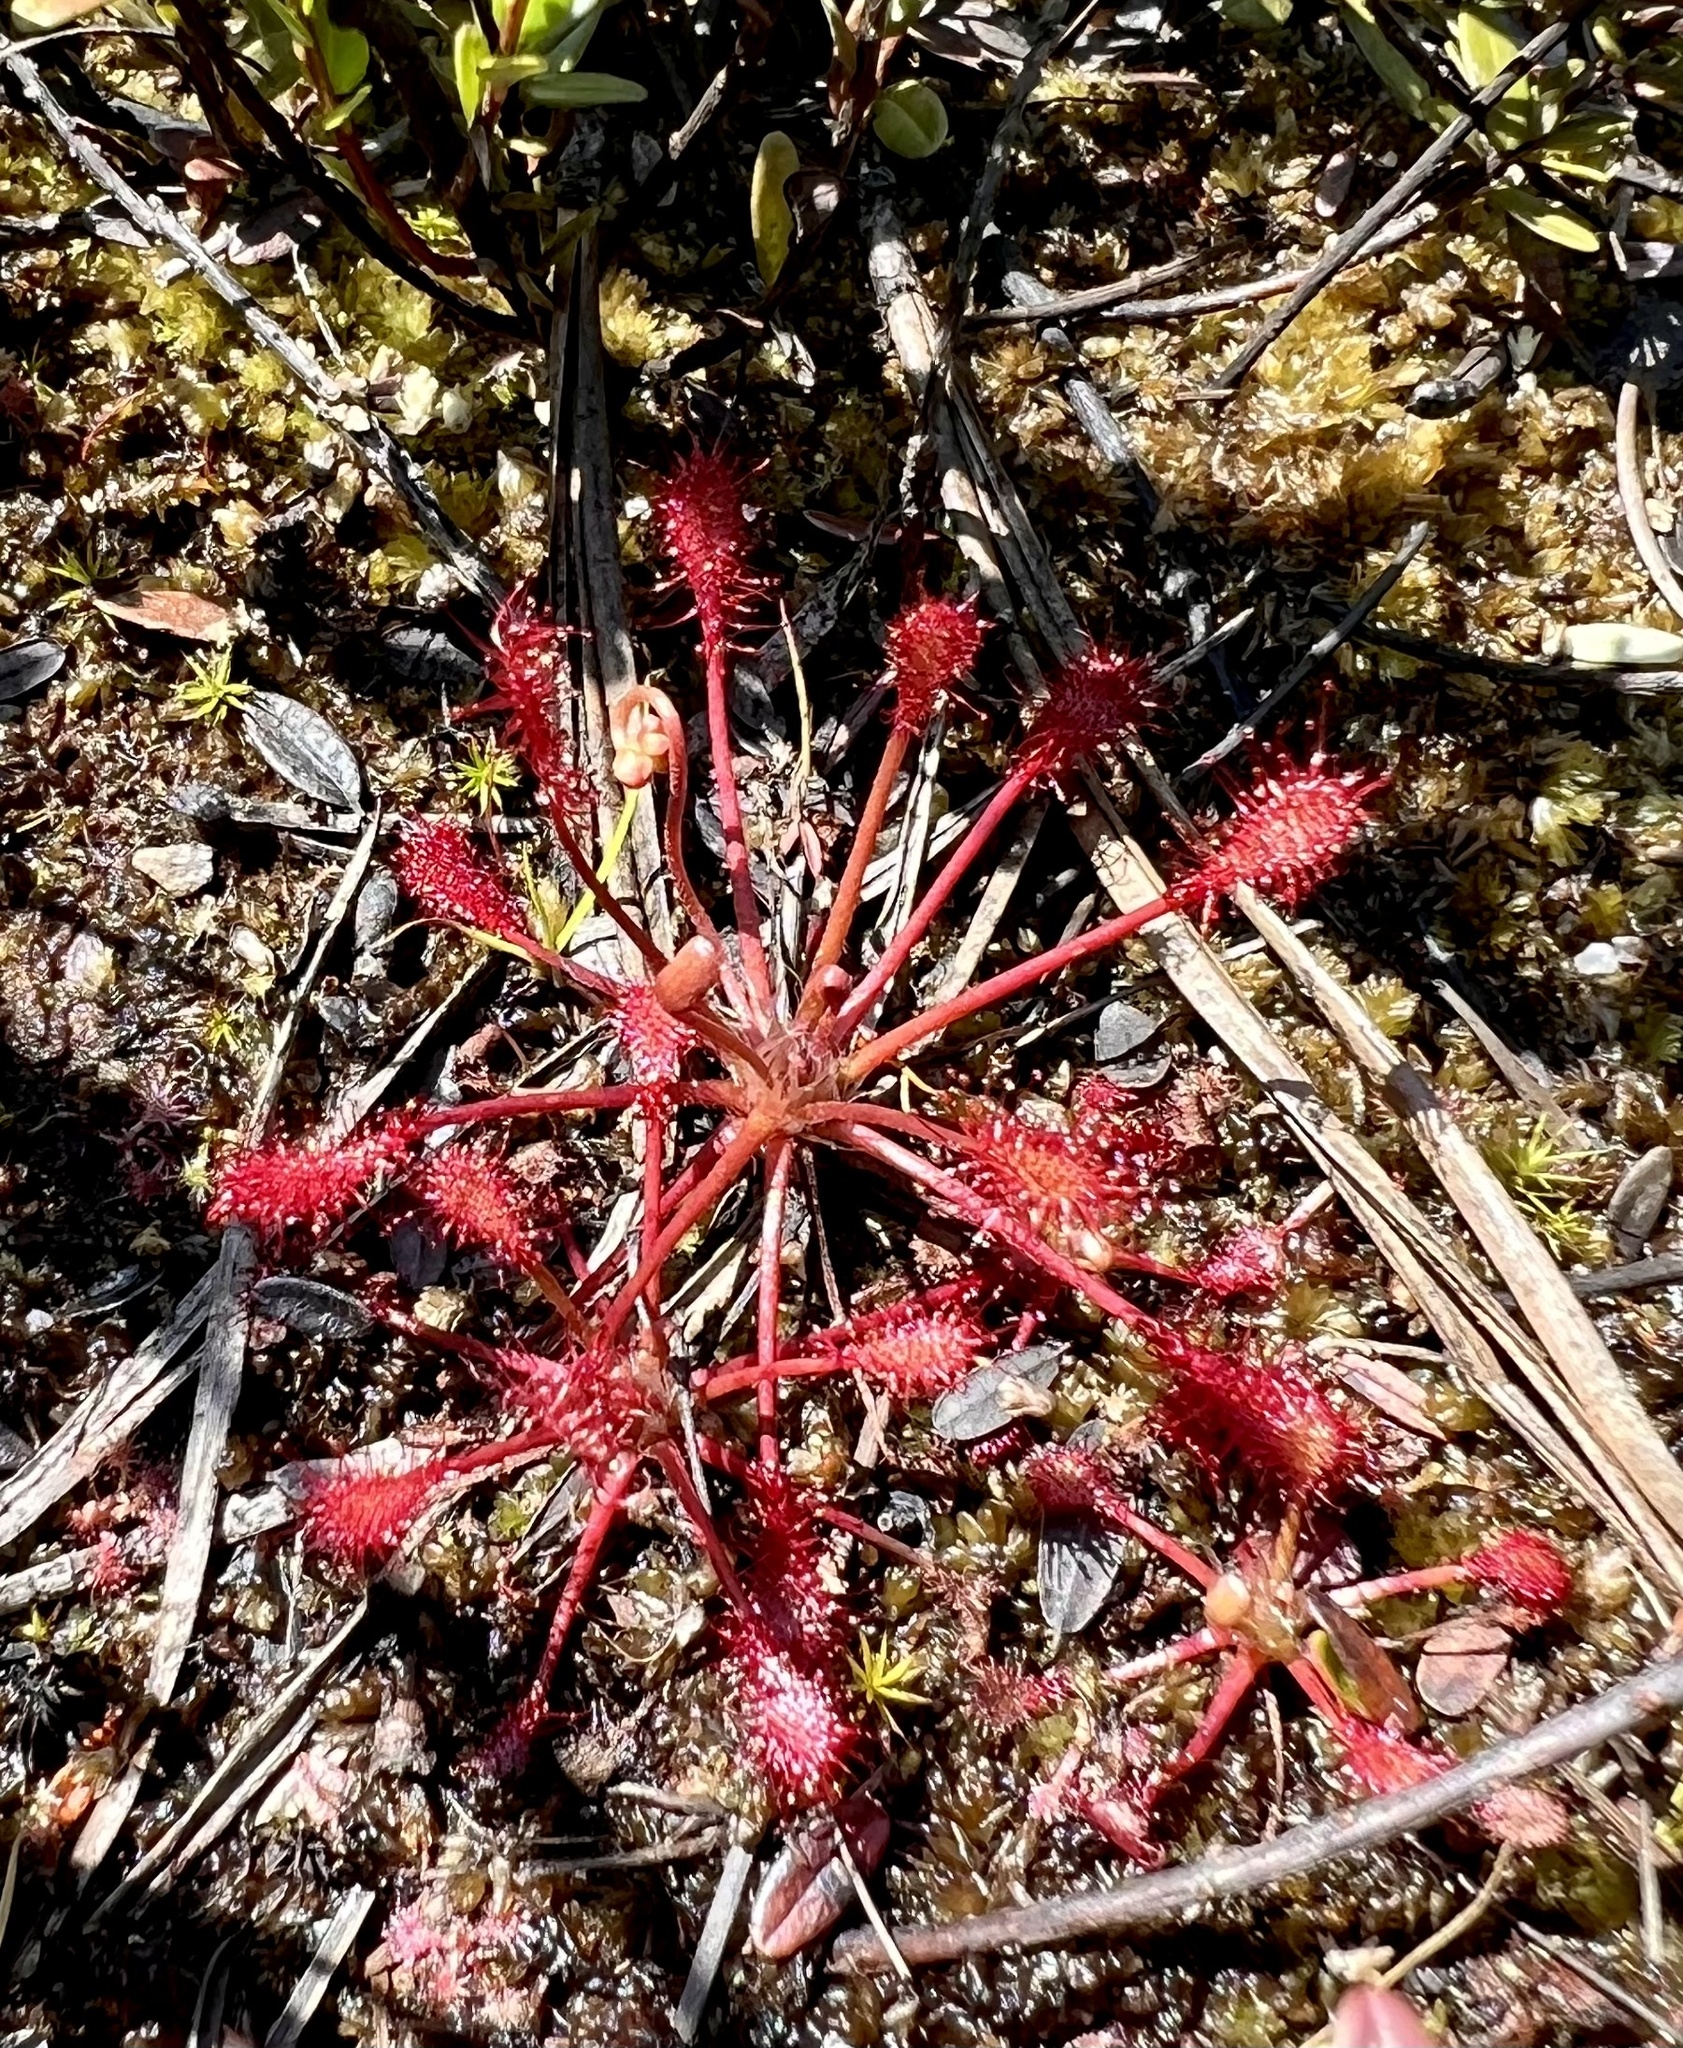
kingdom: Plantae
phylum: Tracheophyta
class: Magnoliopsida
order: Caryophyllales
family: Droseraceae
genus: Drosera
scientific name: Drosera intermedia
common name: Oblong-leaved sundew
